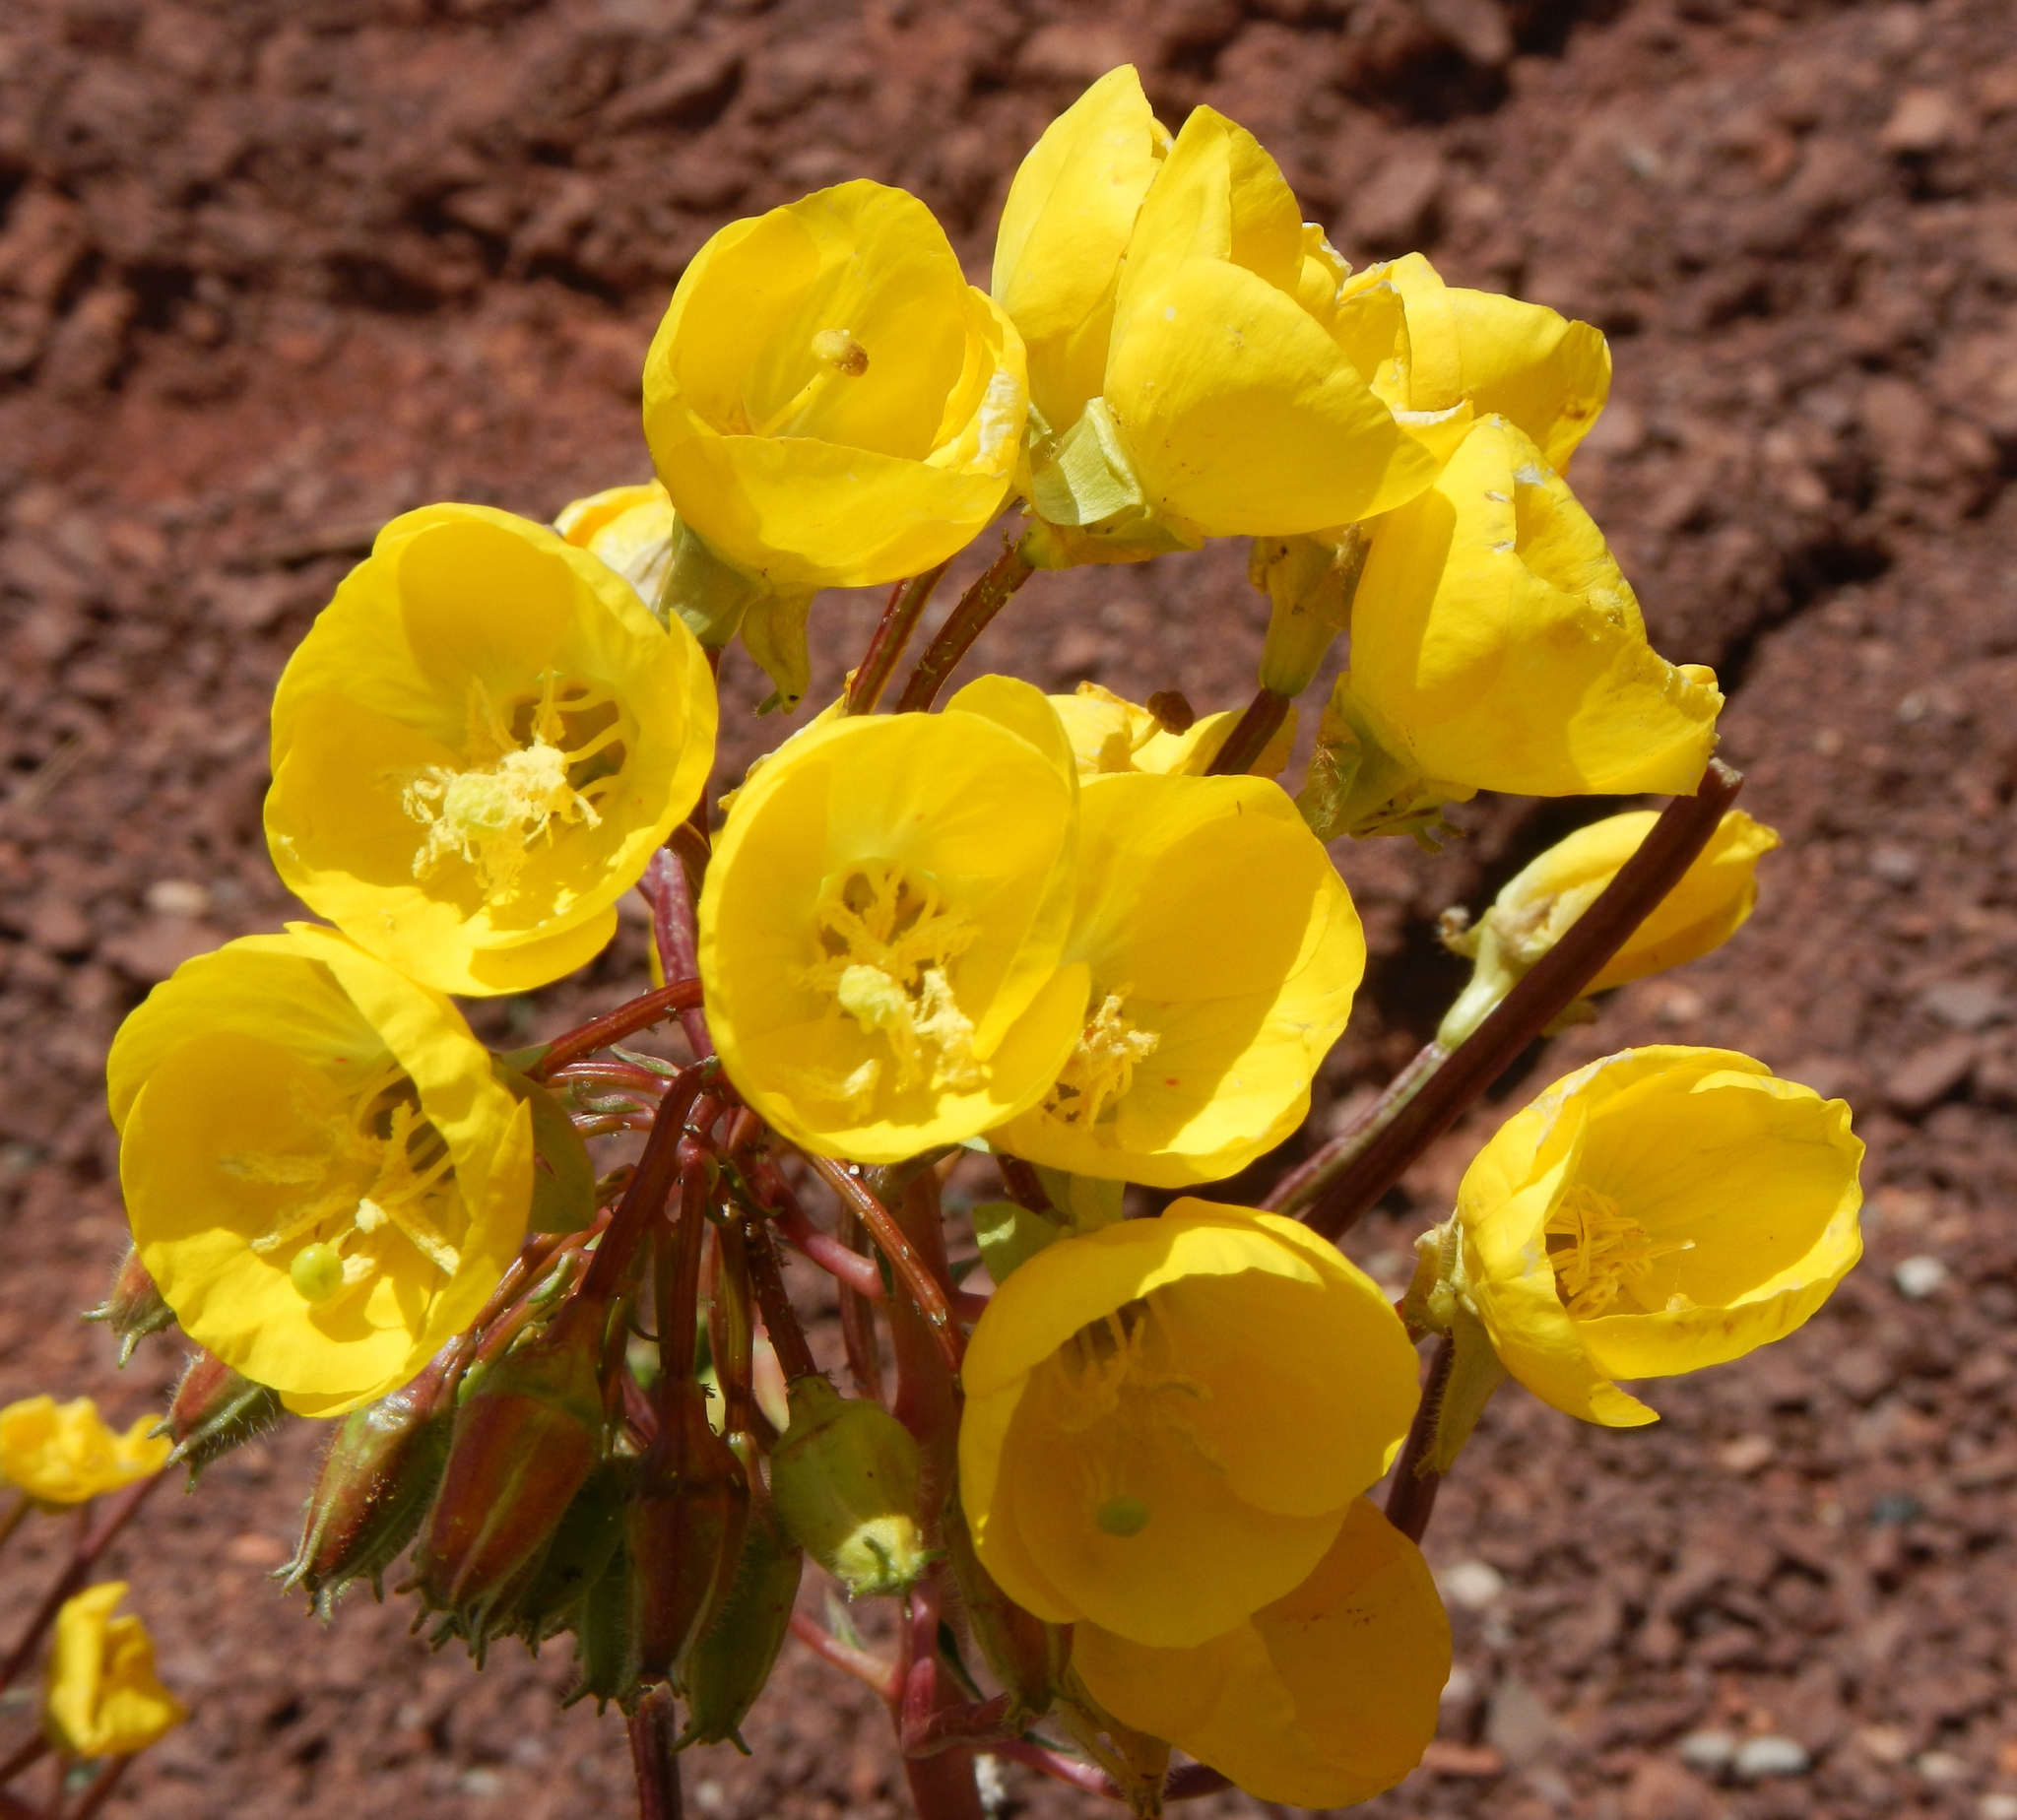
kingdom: Plantae
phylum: Tracheophyta
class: Magnoliopsida
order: Myrtales
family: Onagraceae
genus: Chylismia
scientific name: Chylismia brevipes
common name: Yellow cups
